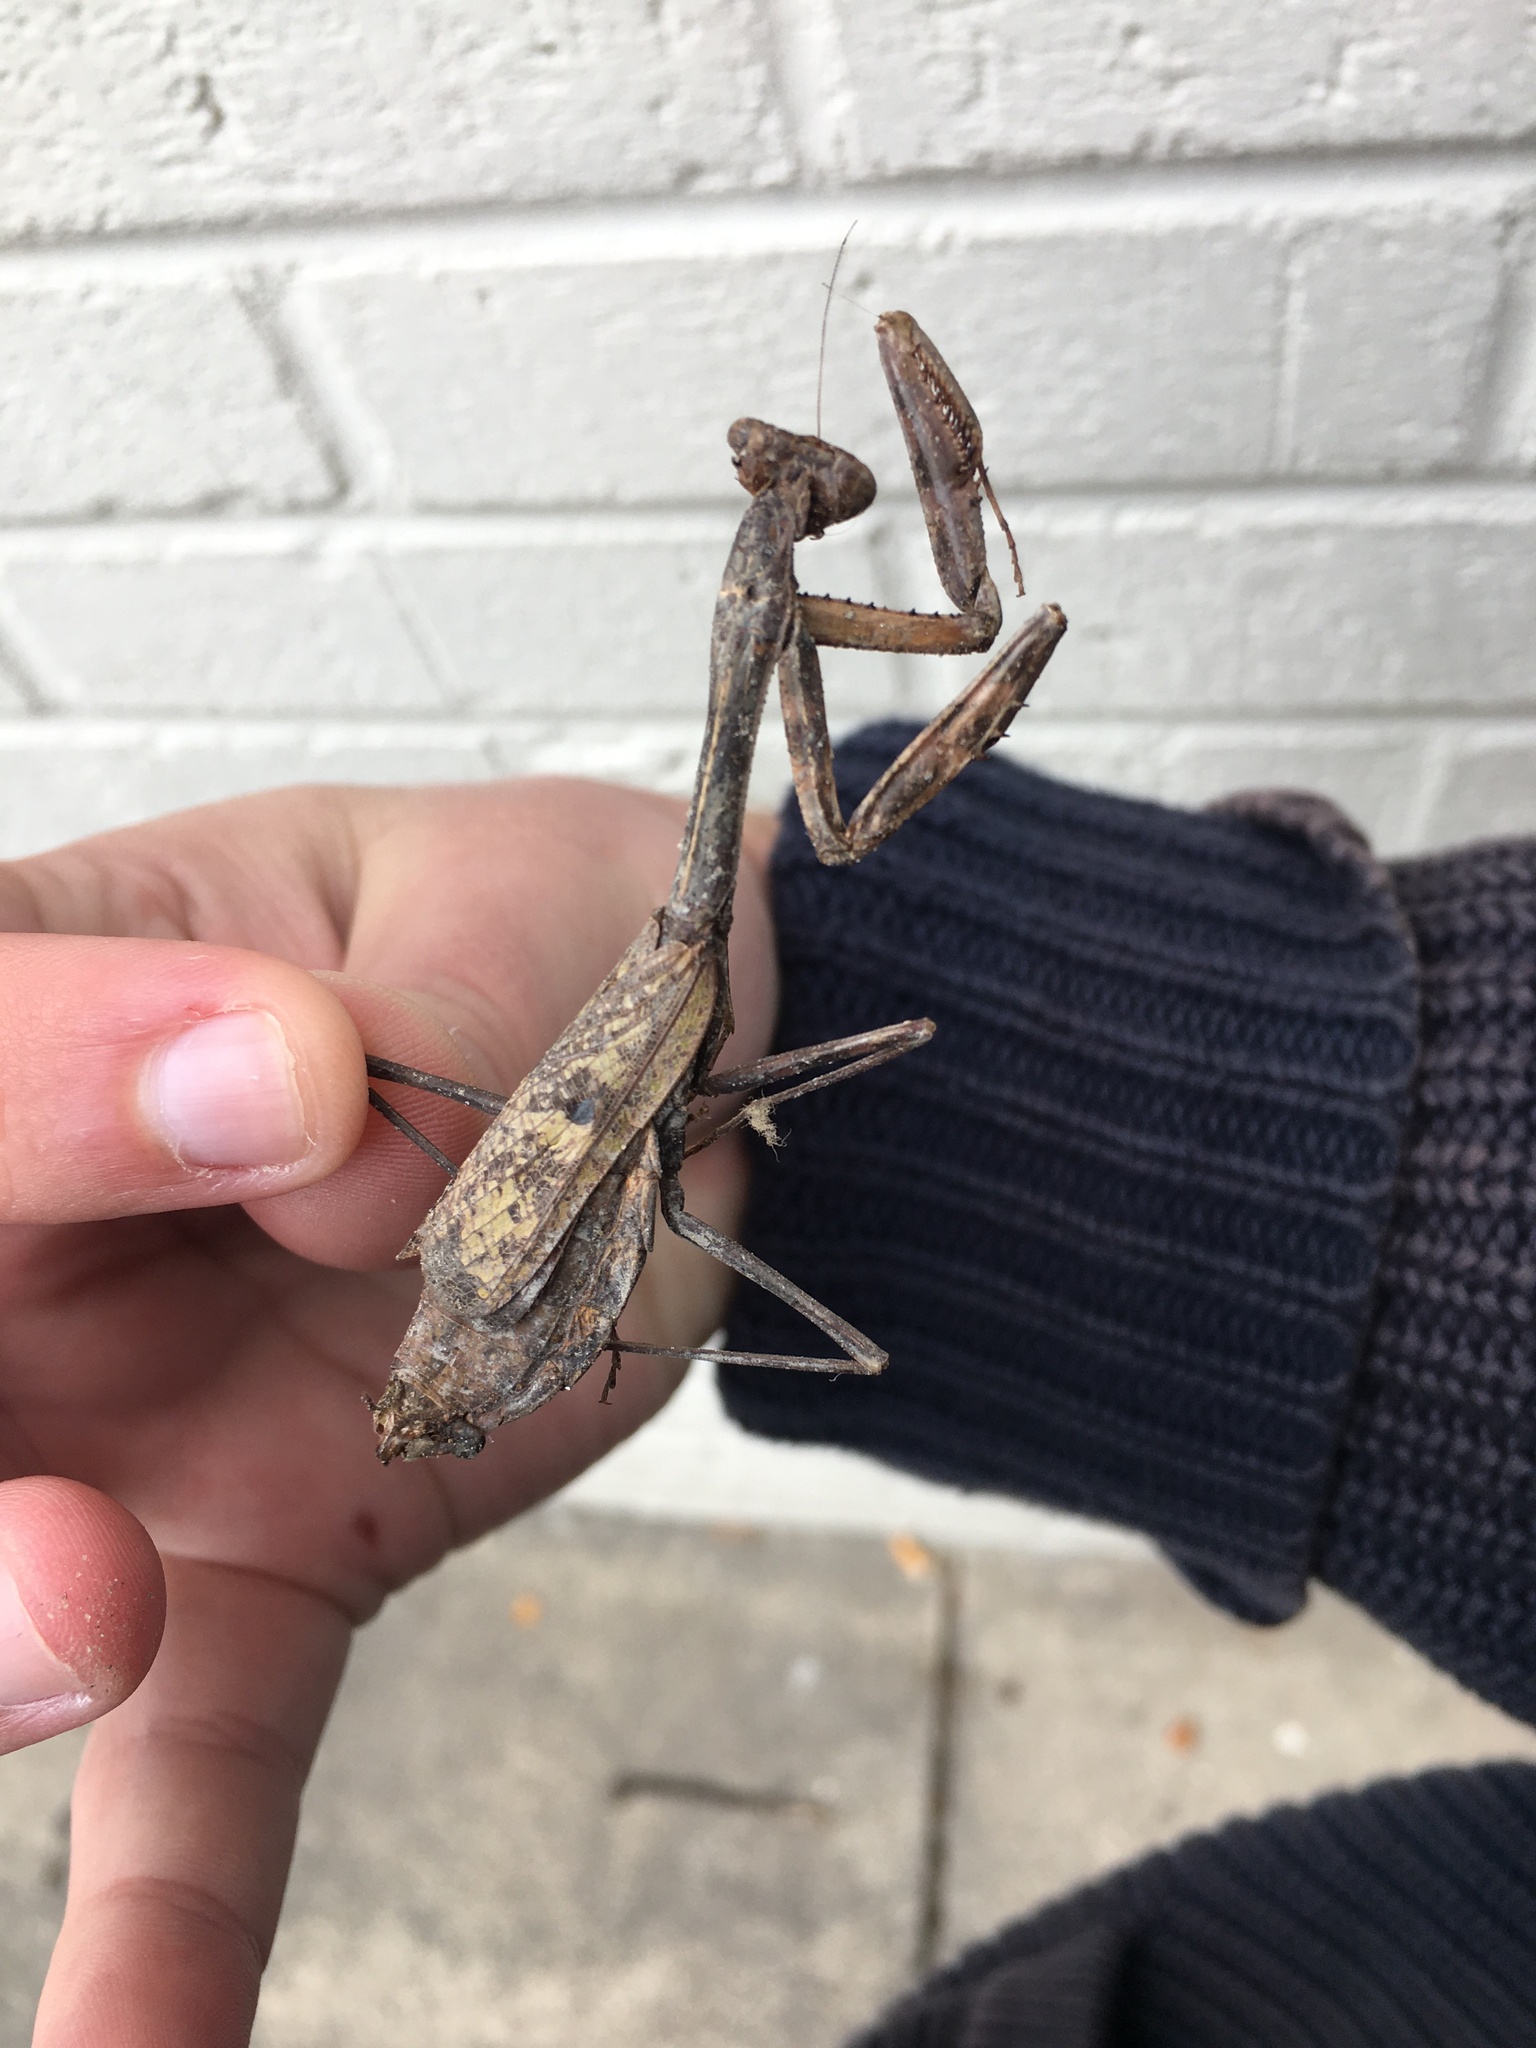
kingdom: Animalia
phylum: Arthropoda
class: Insecta
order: Mantodea
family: Mantidae
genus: Stagmomantis
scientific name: Stagmomantis carolina
